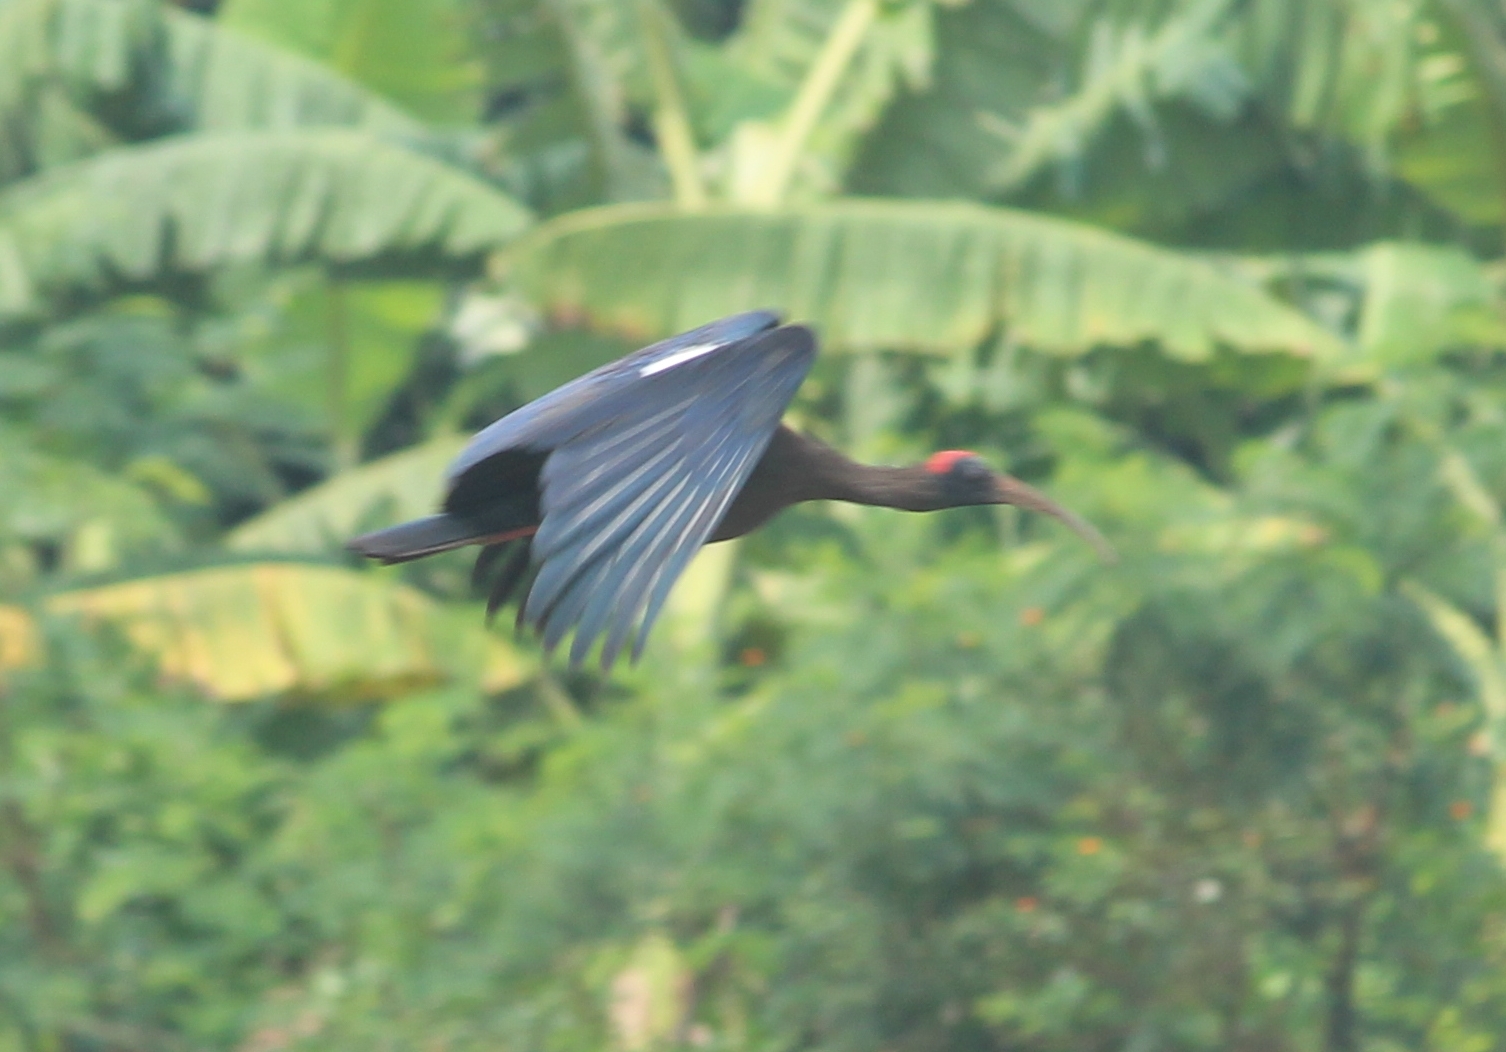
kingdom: Animalia
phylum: Chordata
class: Aves
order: Pelecaniformes
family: Threskiornithidae
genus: Pseudibis
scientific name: Pseudibis papillosa
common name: Red-naped ibis
